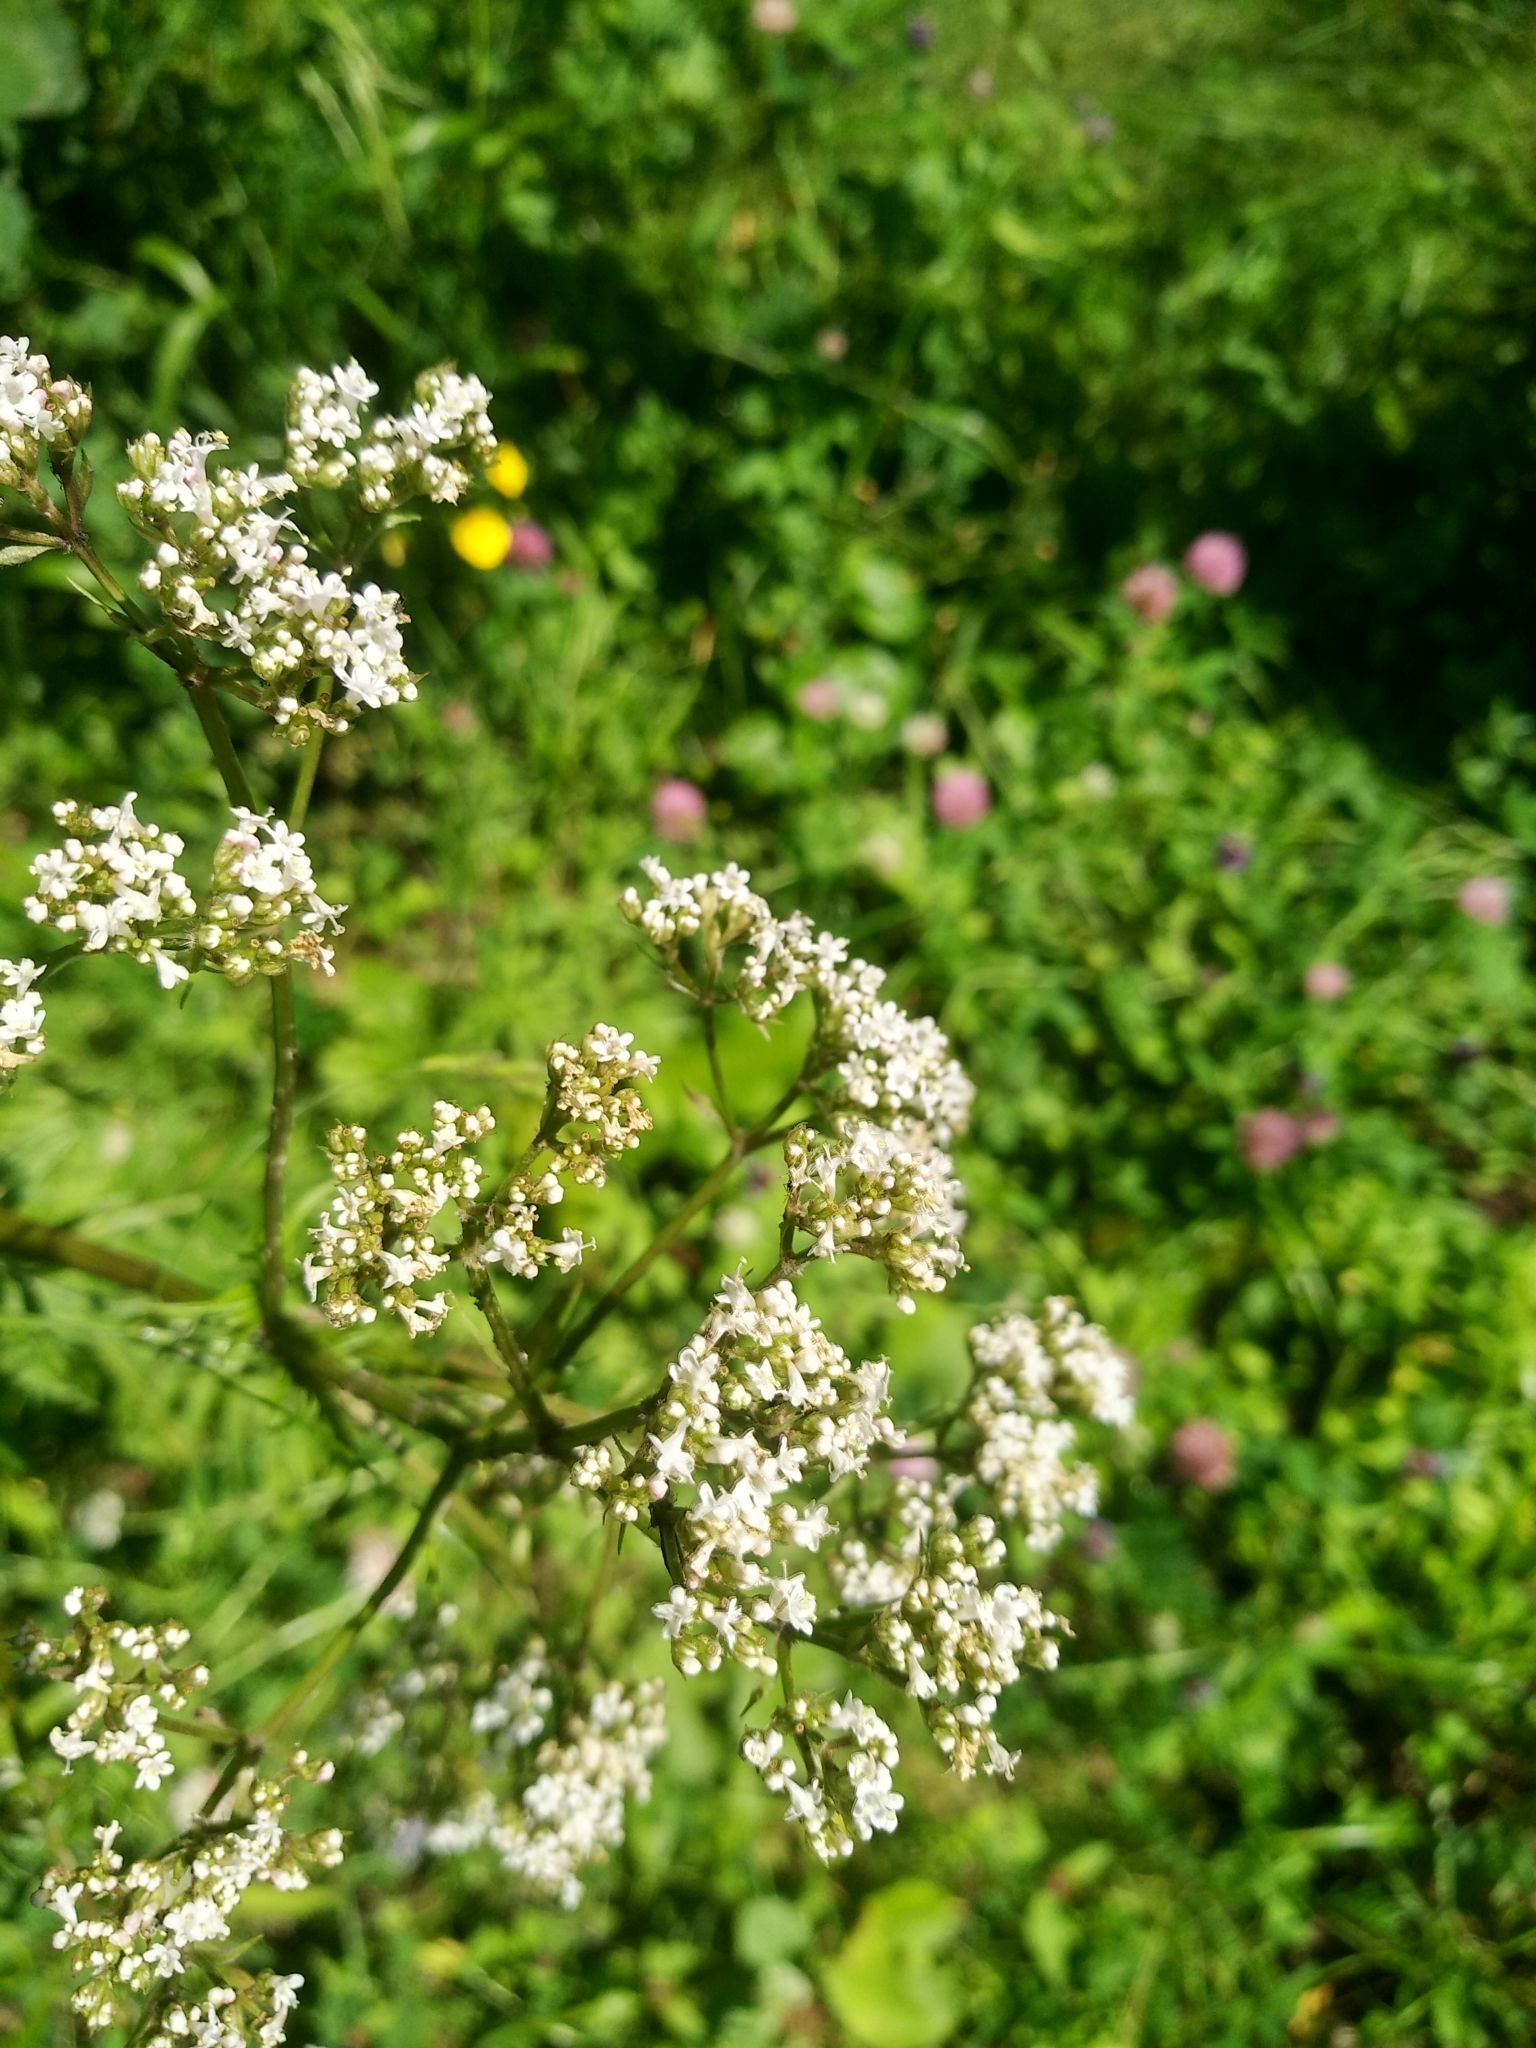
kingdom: Plantae
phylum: Tracheophyta
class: Magnoliopsida
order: Dipsacales
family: Caprifoliaceae
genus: Valeriana
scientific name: Valeriana officinalis
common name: Common valerian
